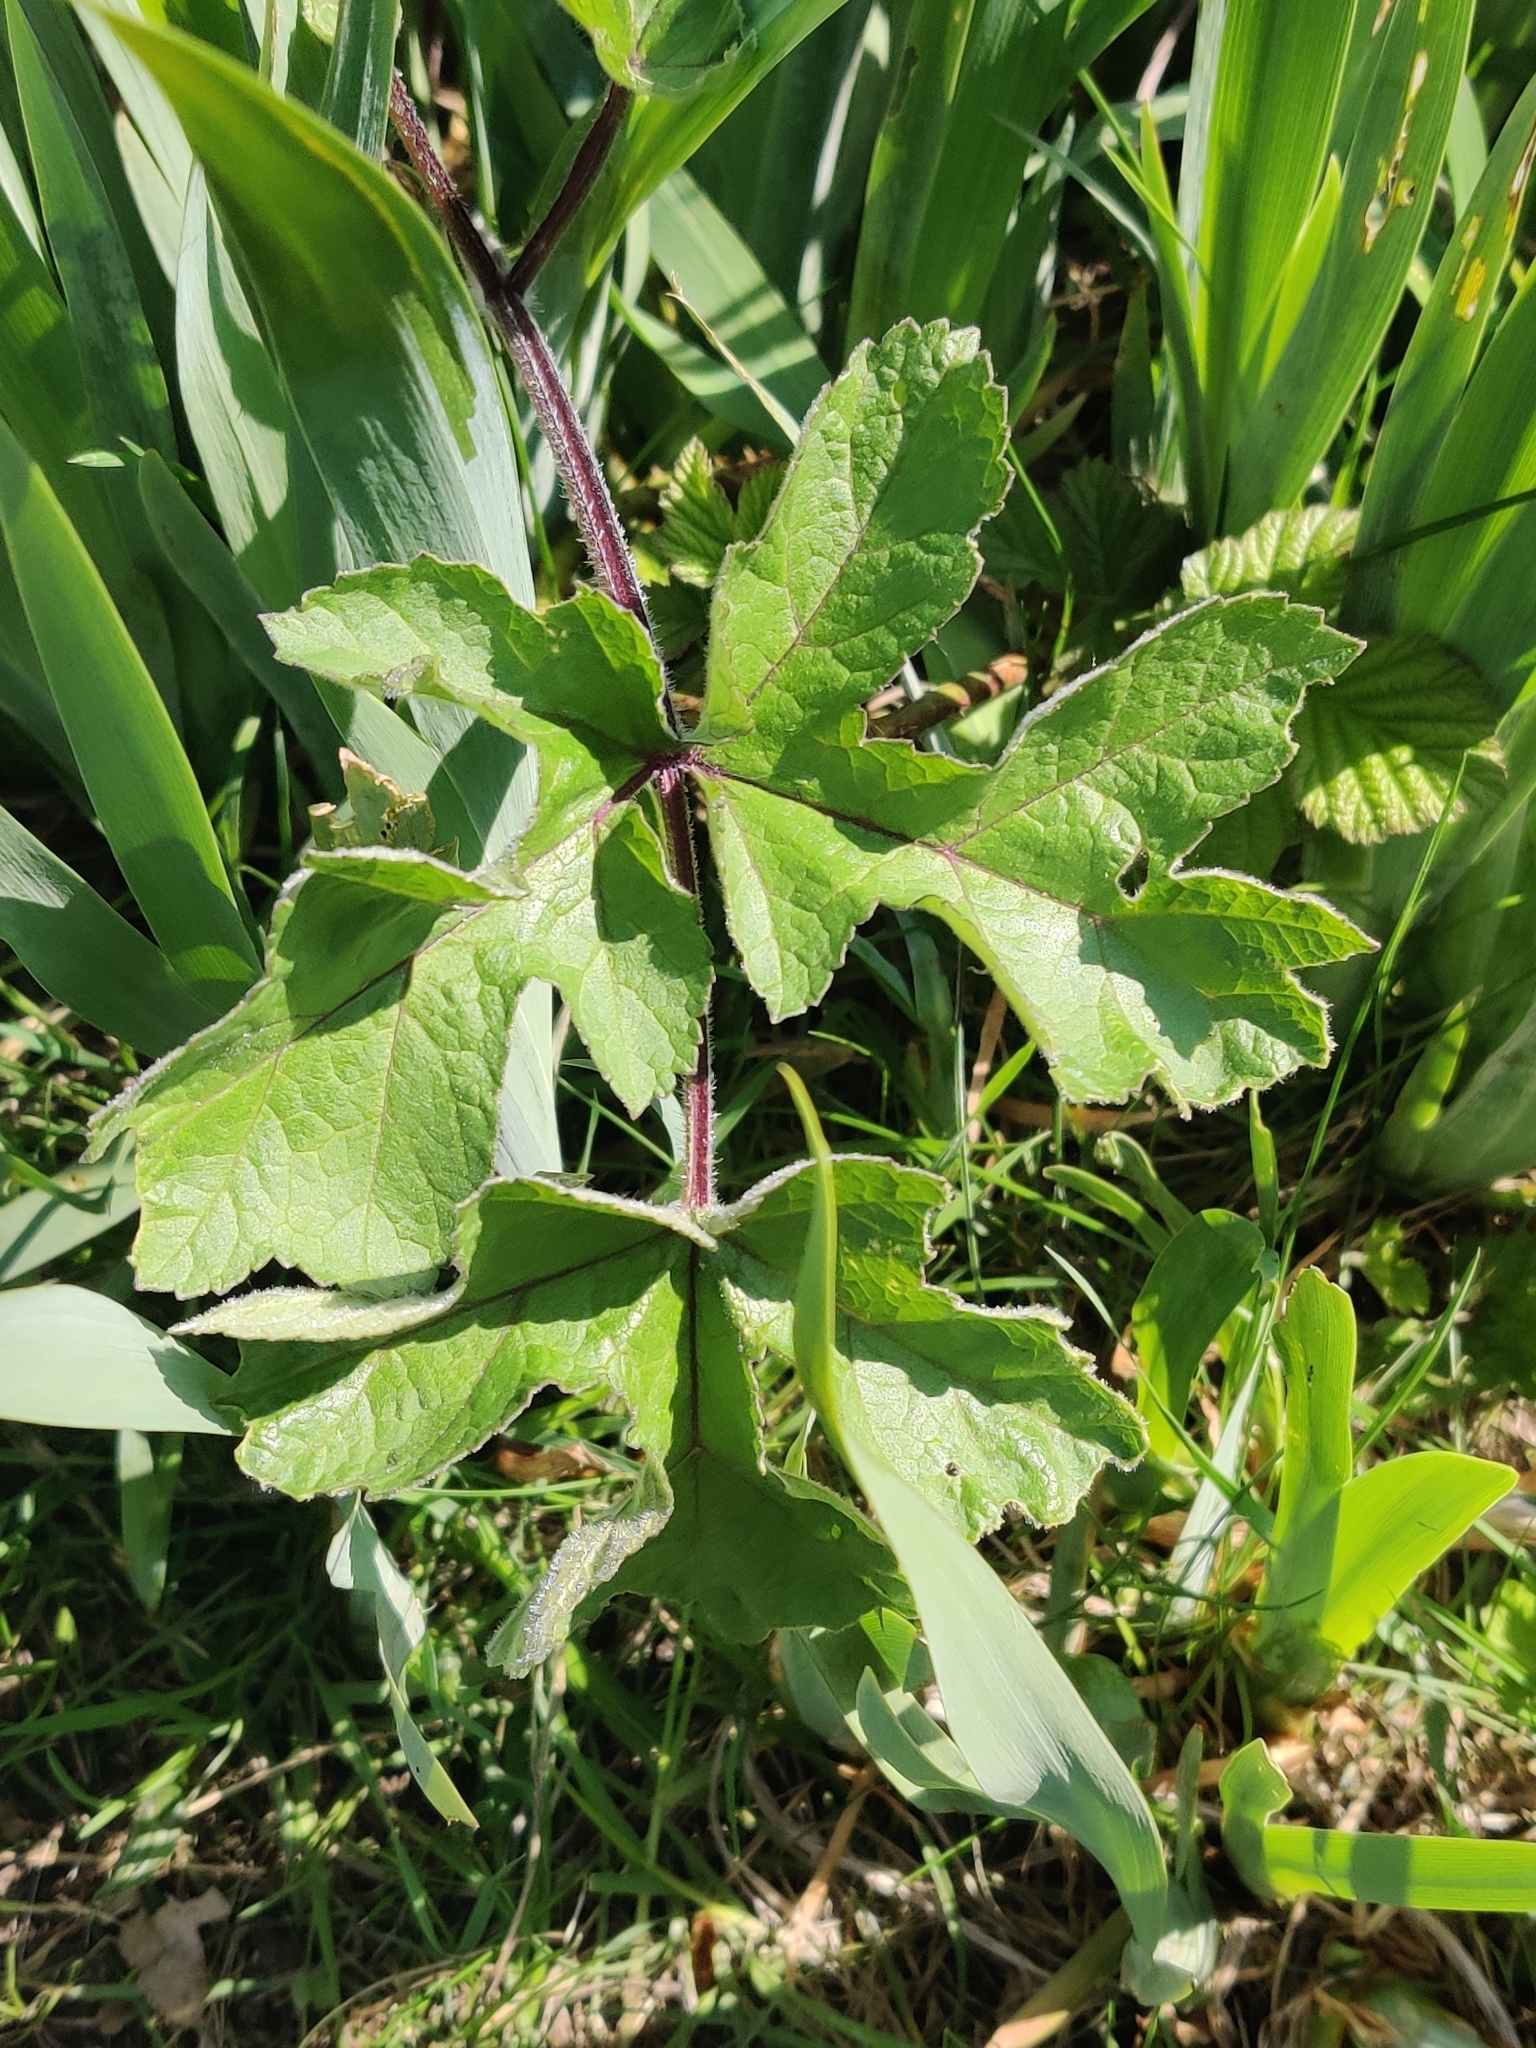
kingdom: Plantae
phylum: Tracheophyta
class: Magnoliopsida
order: Apiales
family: Apiaceae
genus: Heracleum
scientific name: Heracleum sphondylium
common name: Hogweed
